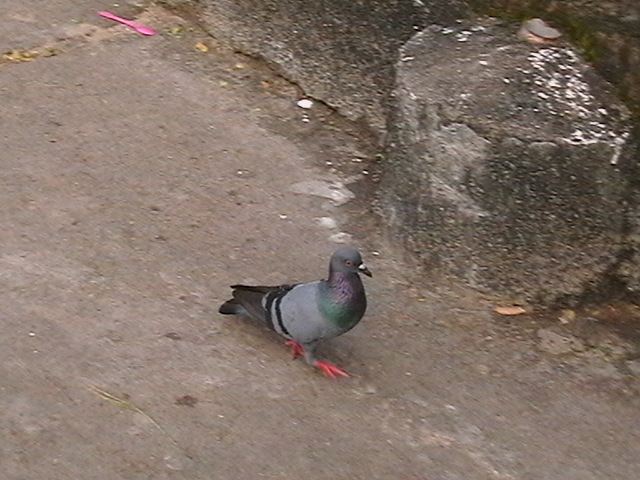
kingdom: Animalia
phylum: Chordata
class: Aves
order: Columbiformes
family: Columbidae
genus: Columba
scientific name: Columba livia
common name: Rock pigeon
